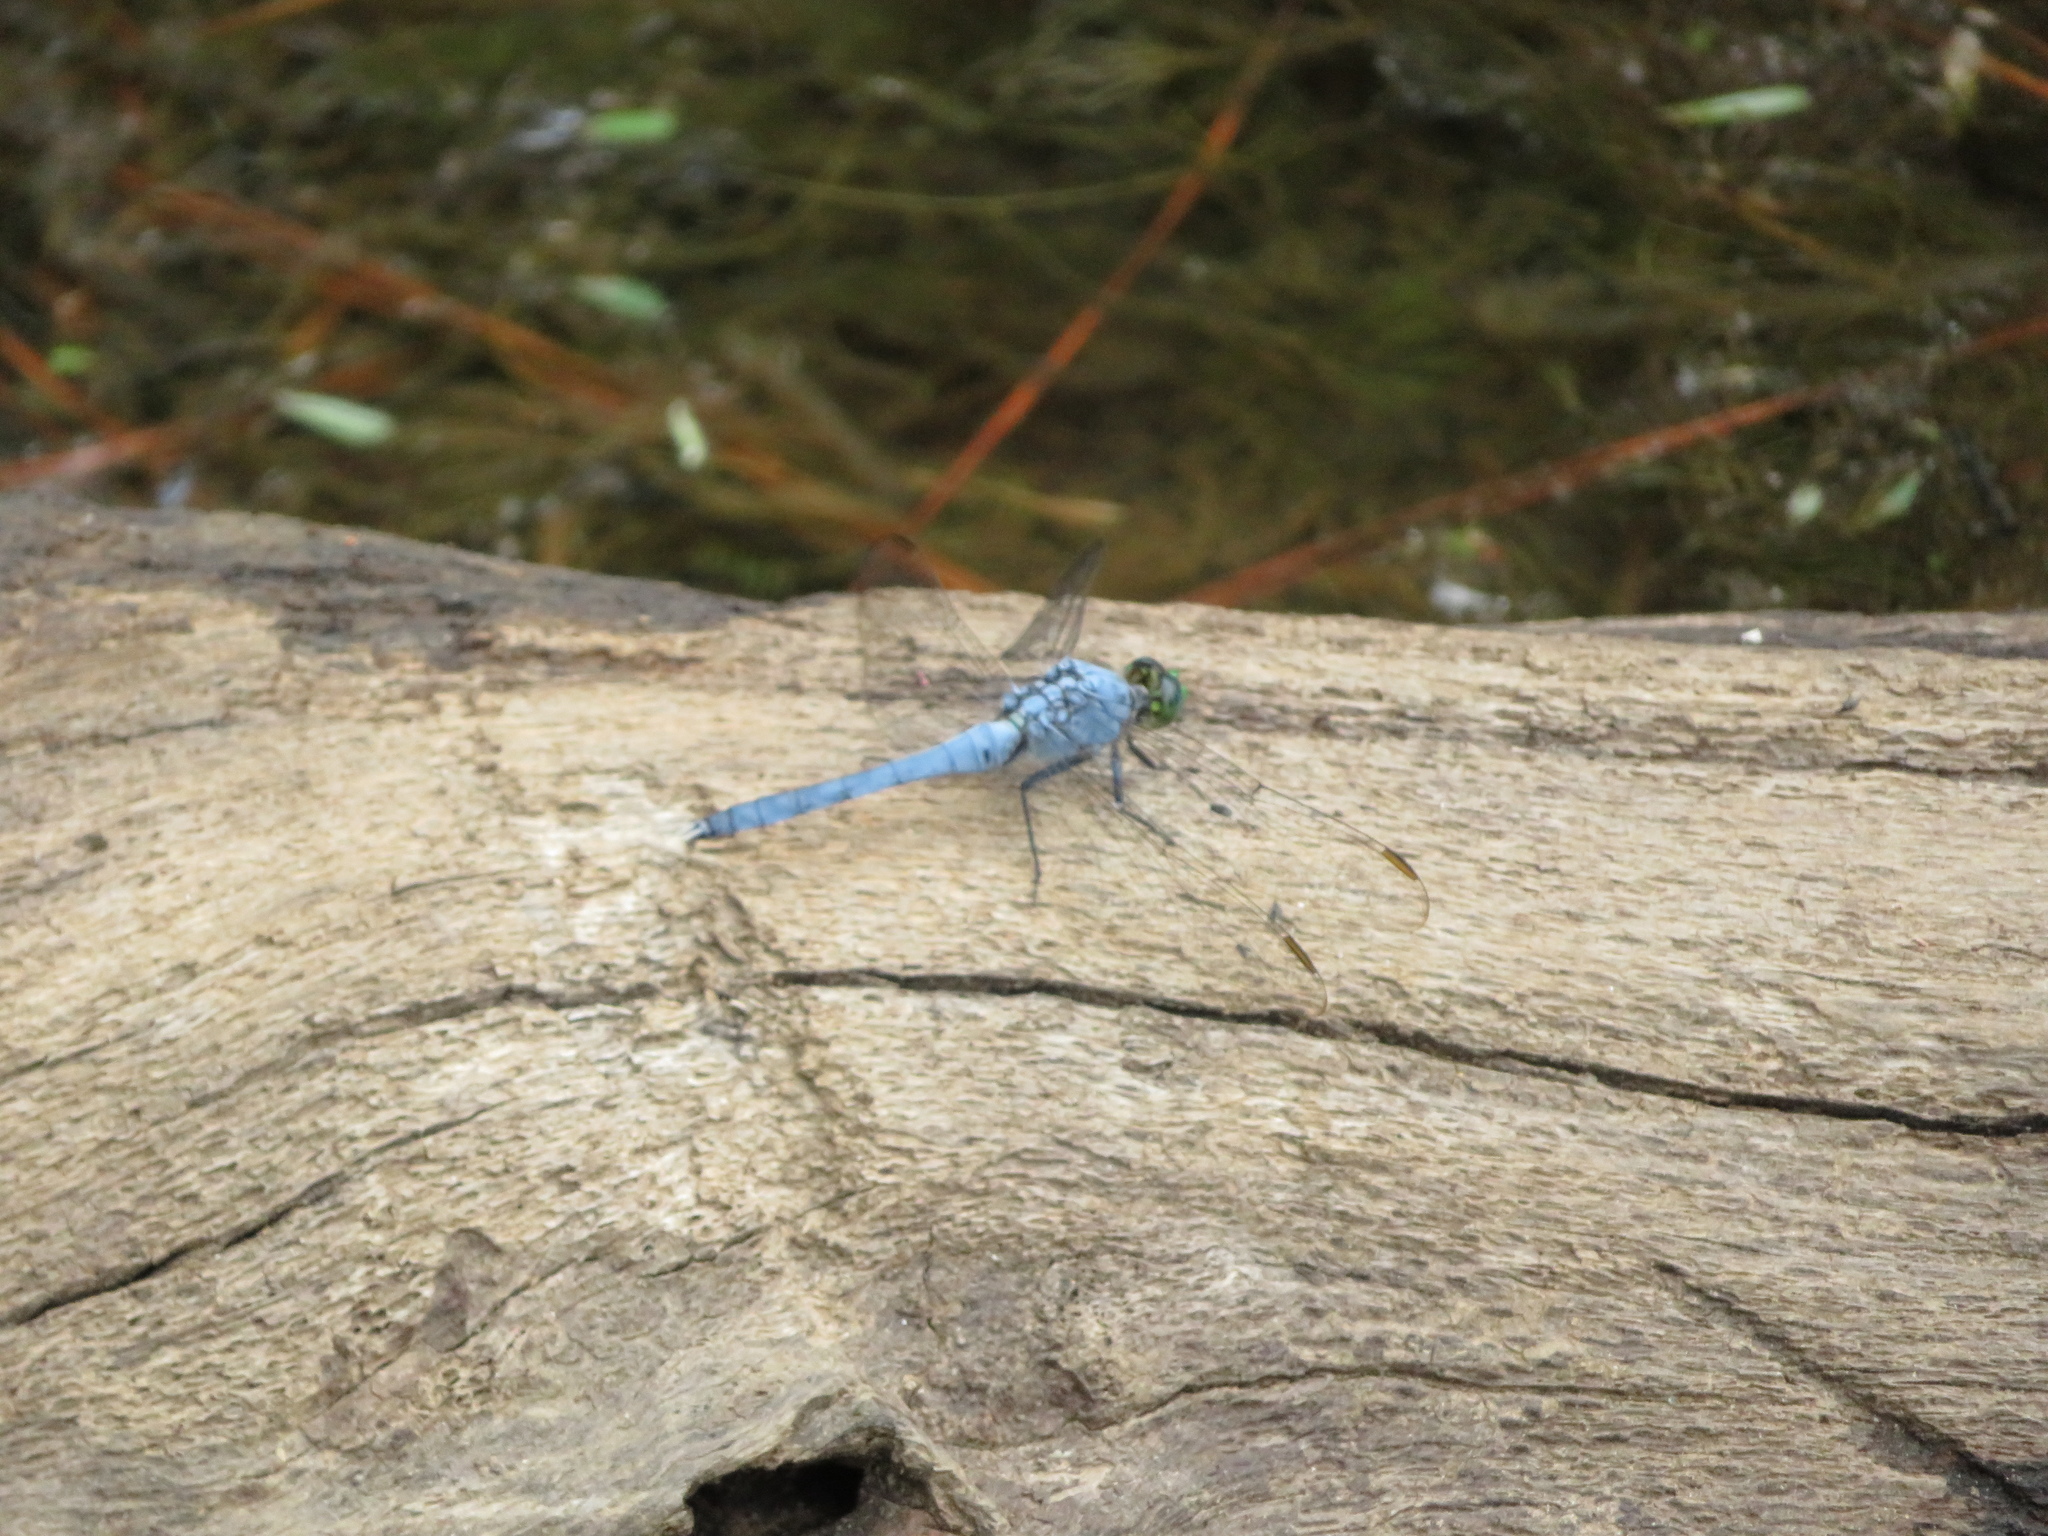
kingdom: Animalia
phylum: Arthropoda
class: Insecta
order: Odonata
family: Libellulidae
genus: Erythemis
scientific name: Erythemis simplicicollis
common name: Eastern pondhawk
